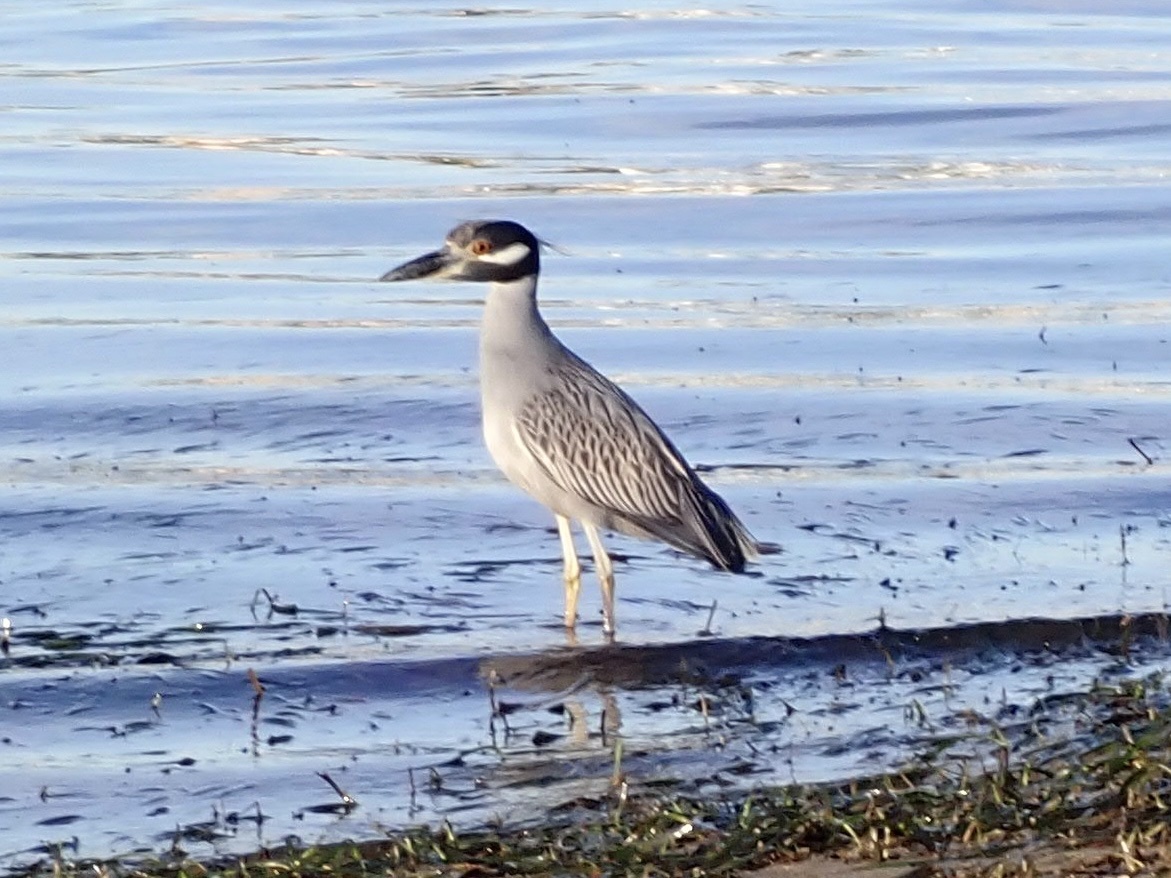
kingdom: Animalia
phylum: Chordata
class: Aves
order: Pelecaniformes
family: Ardeidae
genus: Nyctanassa
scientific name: Nyctanassa violacea
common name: Yellow-crowned night heron
